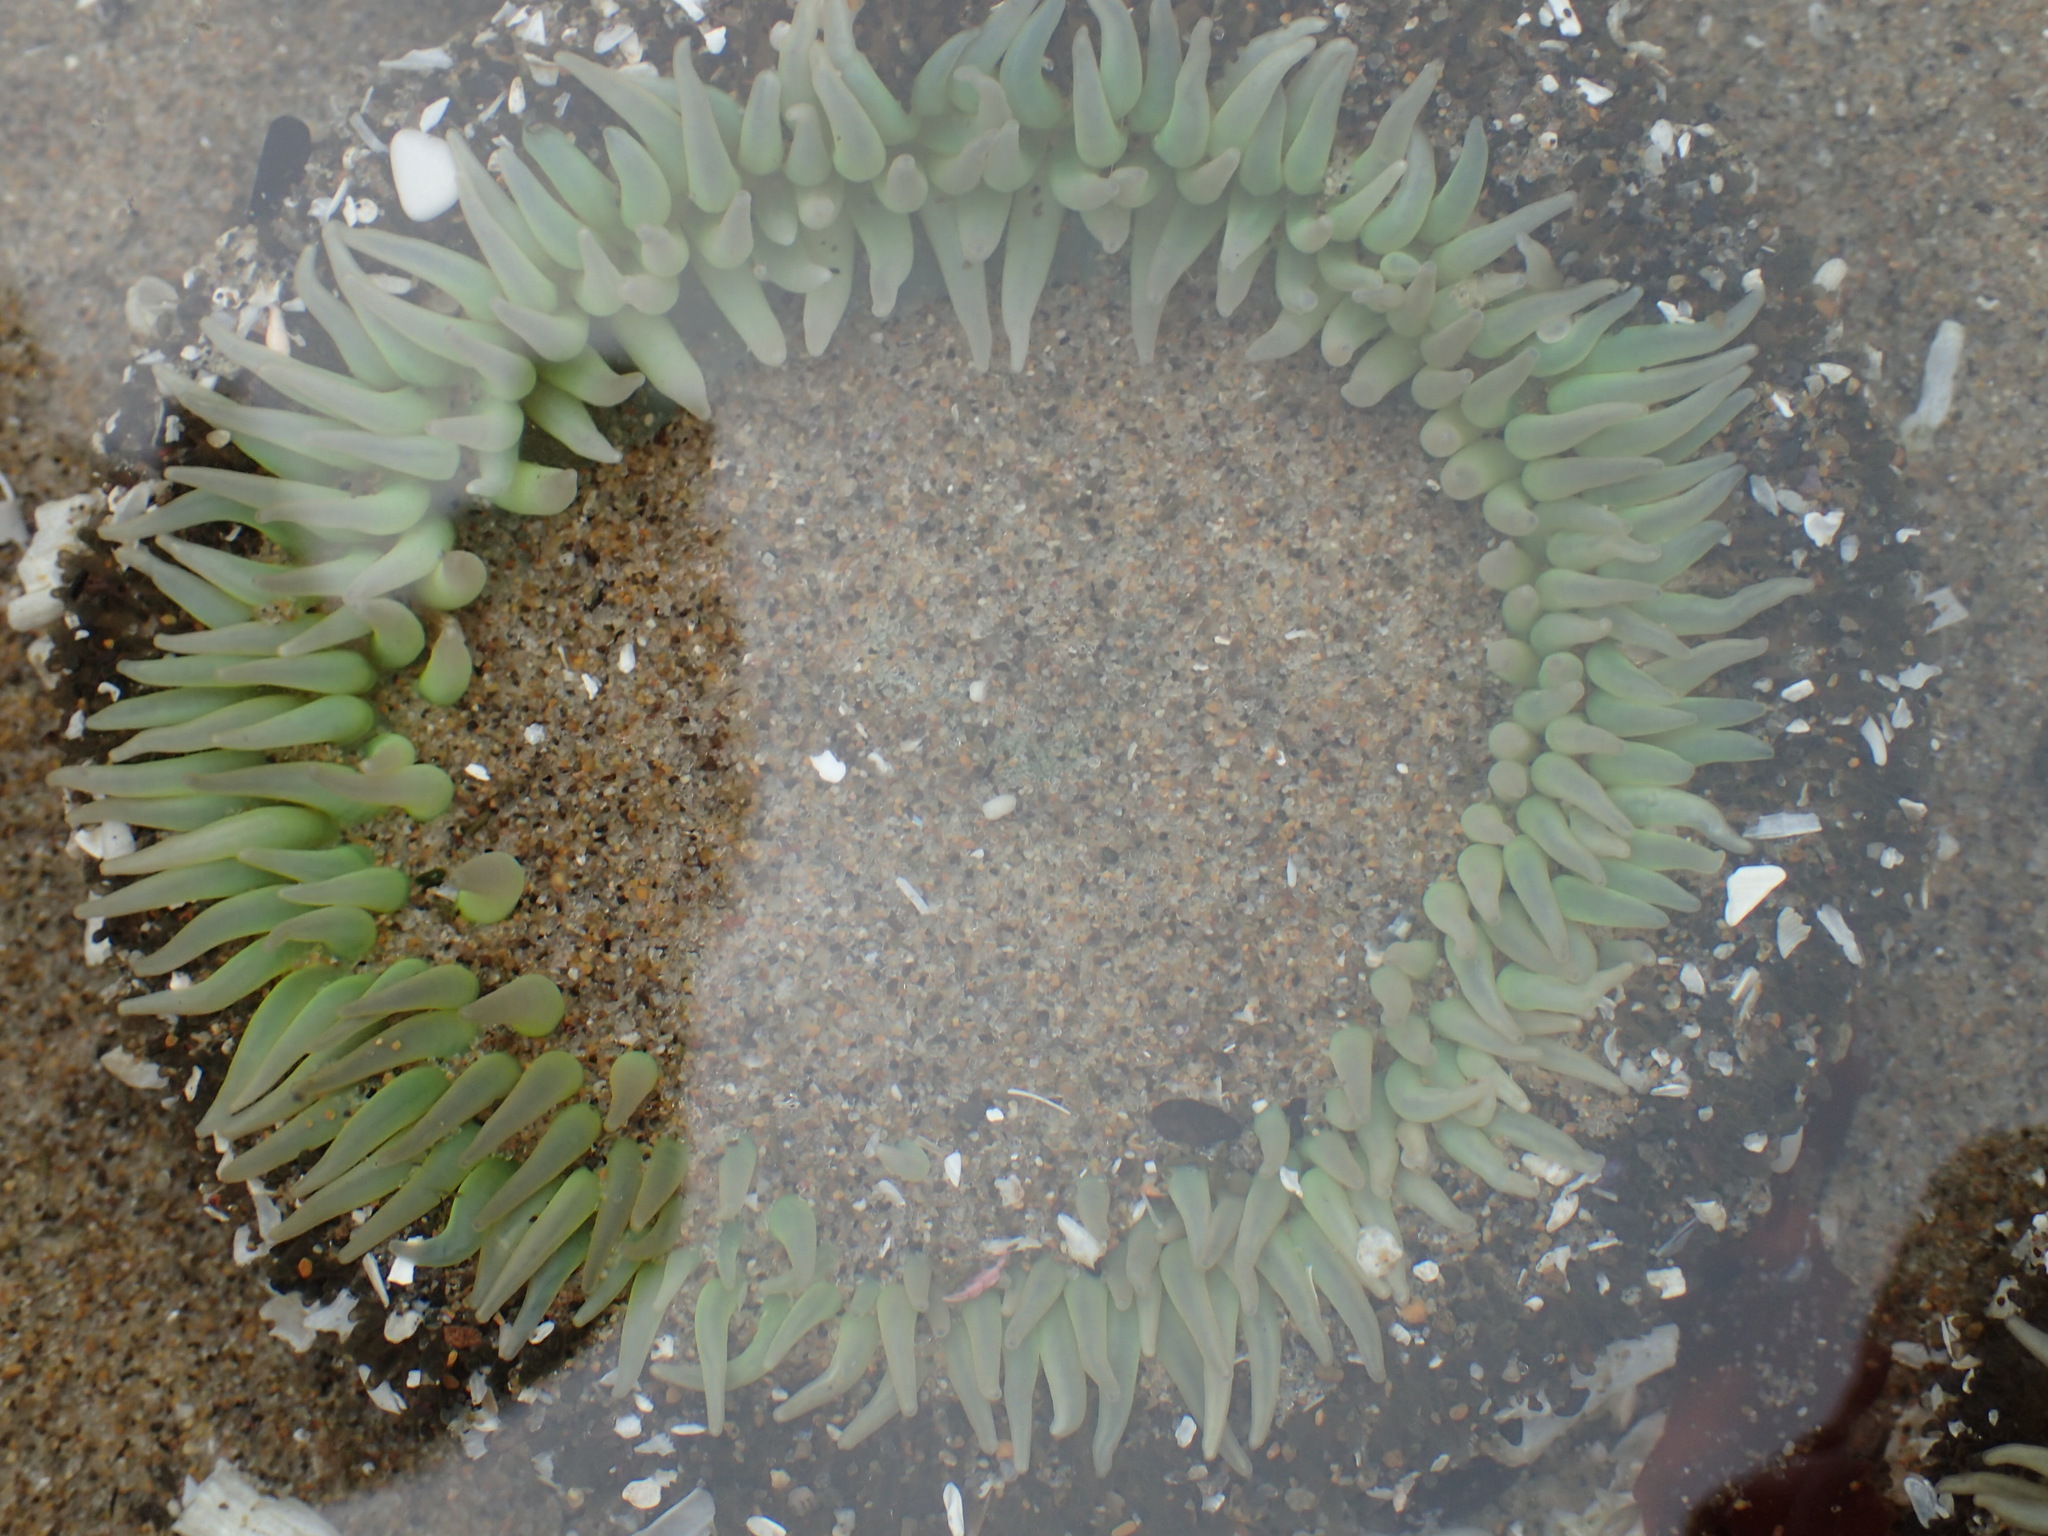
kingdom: Animalia
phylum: Cnidaria
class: Anthozoa
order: Actiniaria
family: Actiniidae
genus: Anthopleura
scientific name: Anthopleura xanthogrammica
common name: Giant green anemone
